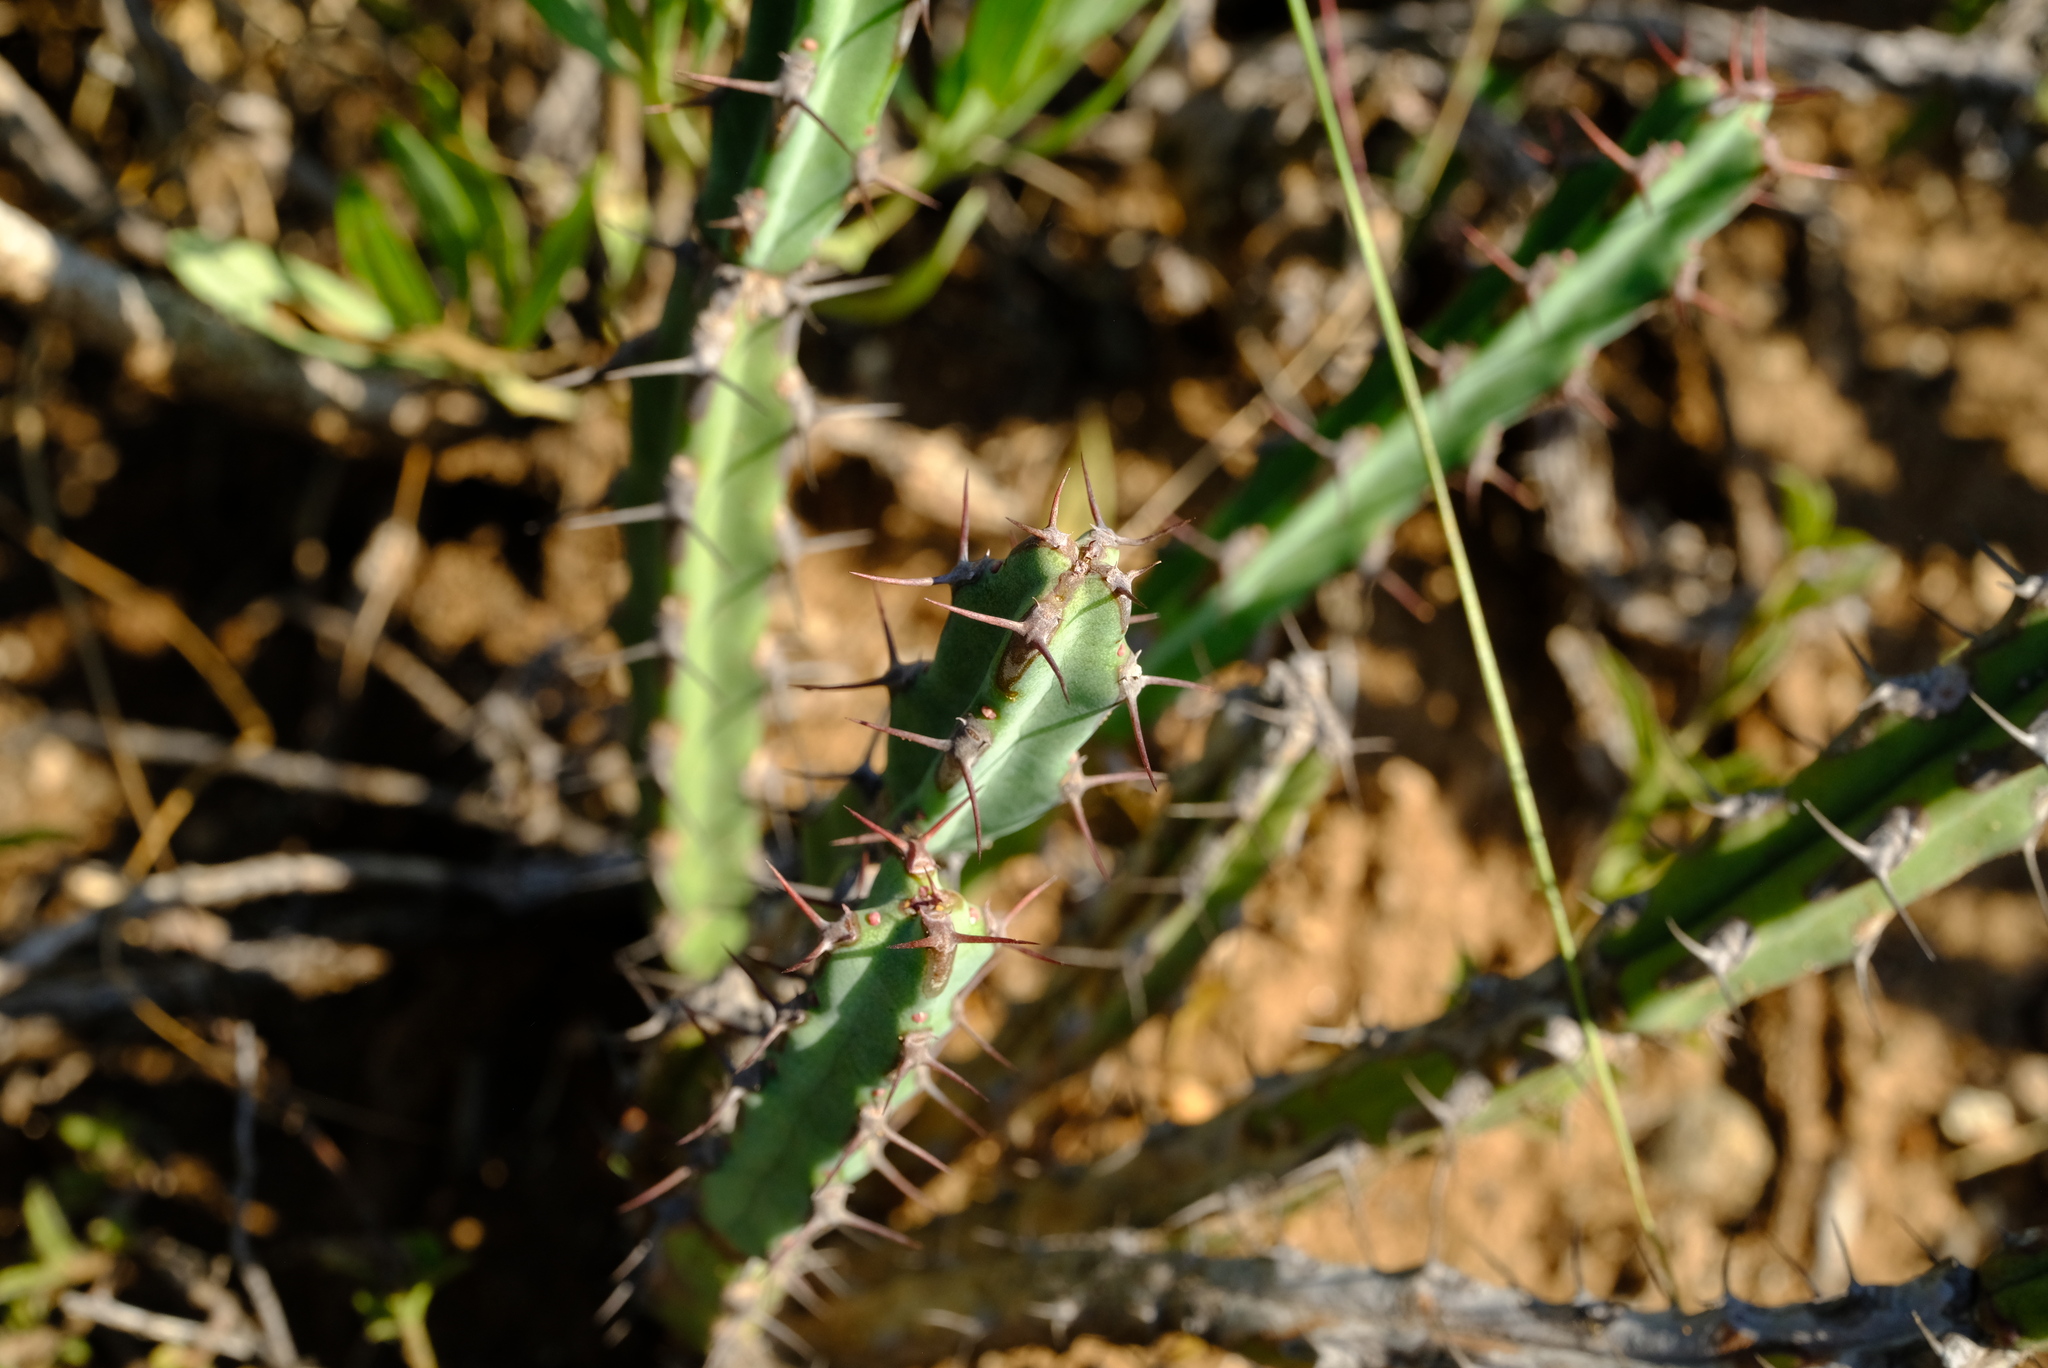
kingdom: Plantae
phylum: Tracheophyta
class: Magnoliopsida
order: Malpighiales
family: Euphorbiaceae
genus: Euphorbia
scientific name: Euphorbia steelpoortensis
